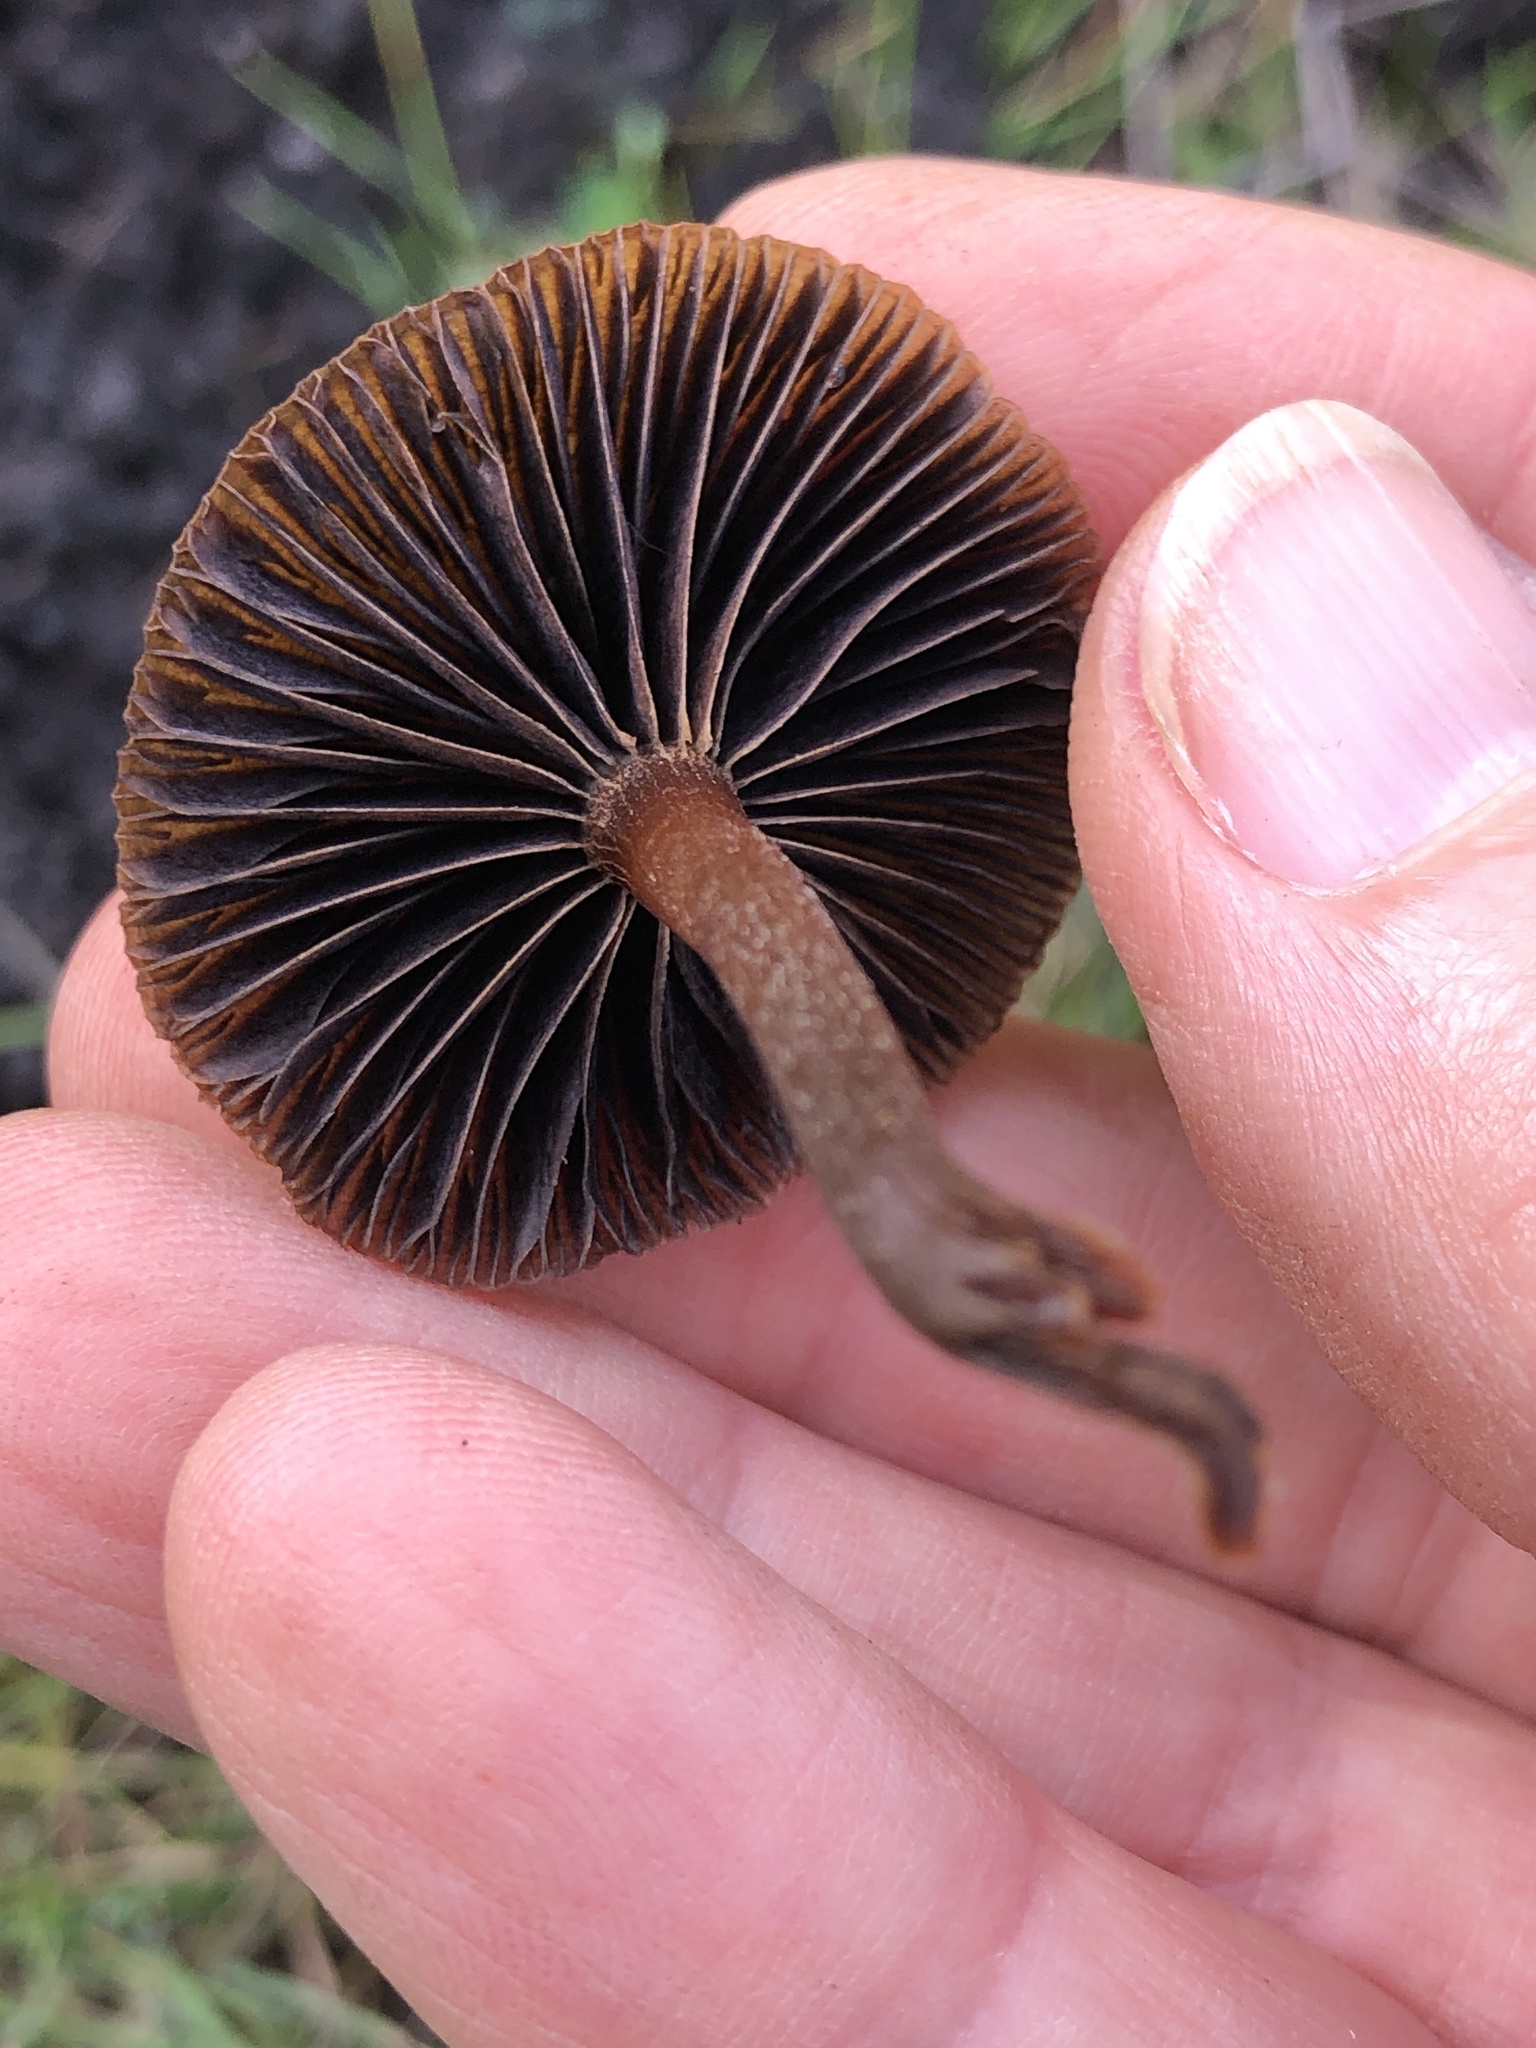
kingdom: Fungi
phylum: Basidiomycota
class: Agaricomycetes
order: Agaricales
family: Strophariaceae
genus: Deconica
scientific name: Deconica coprophila
